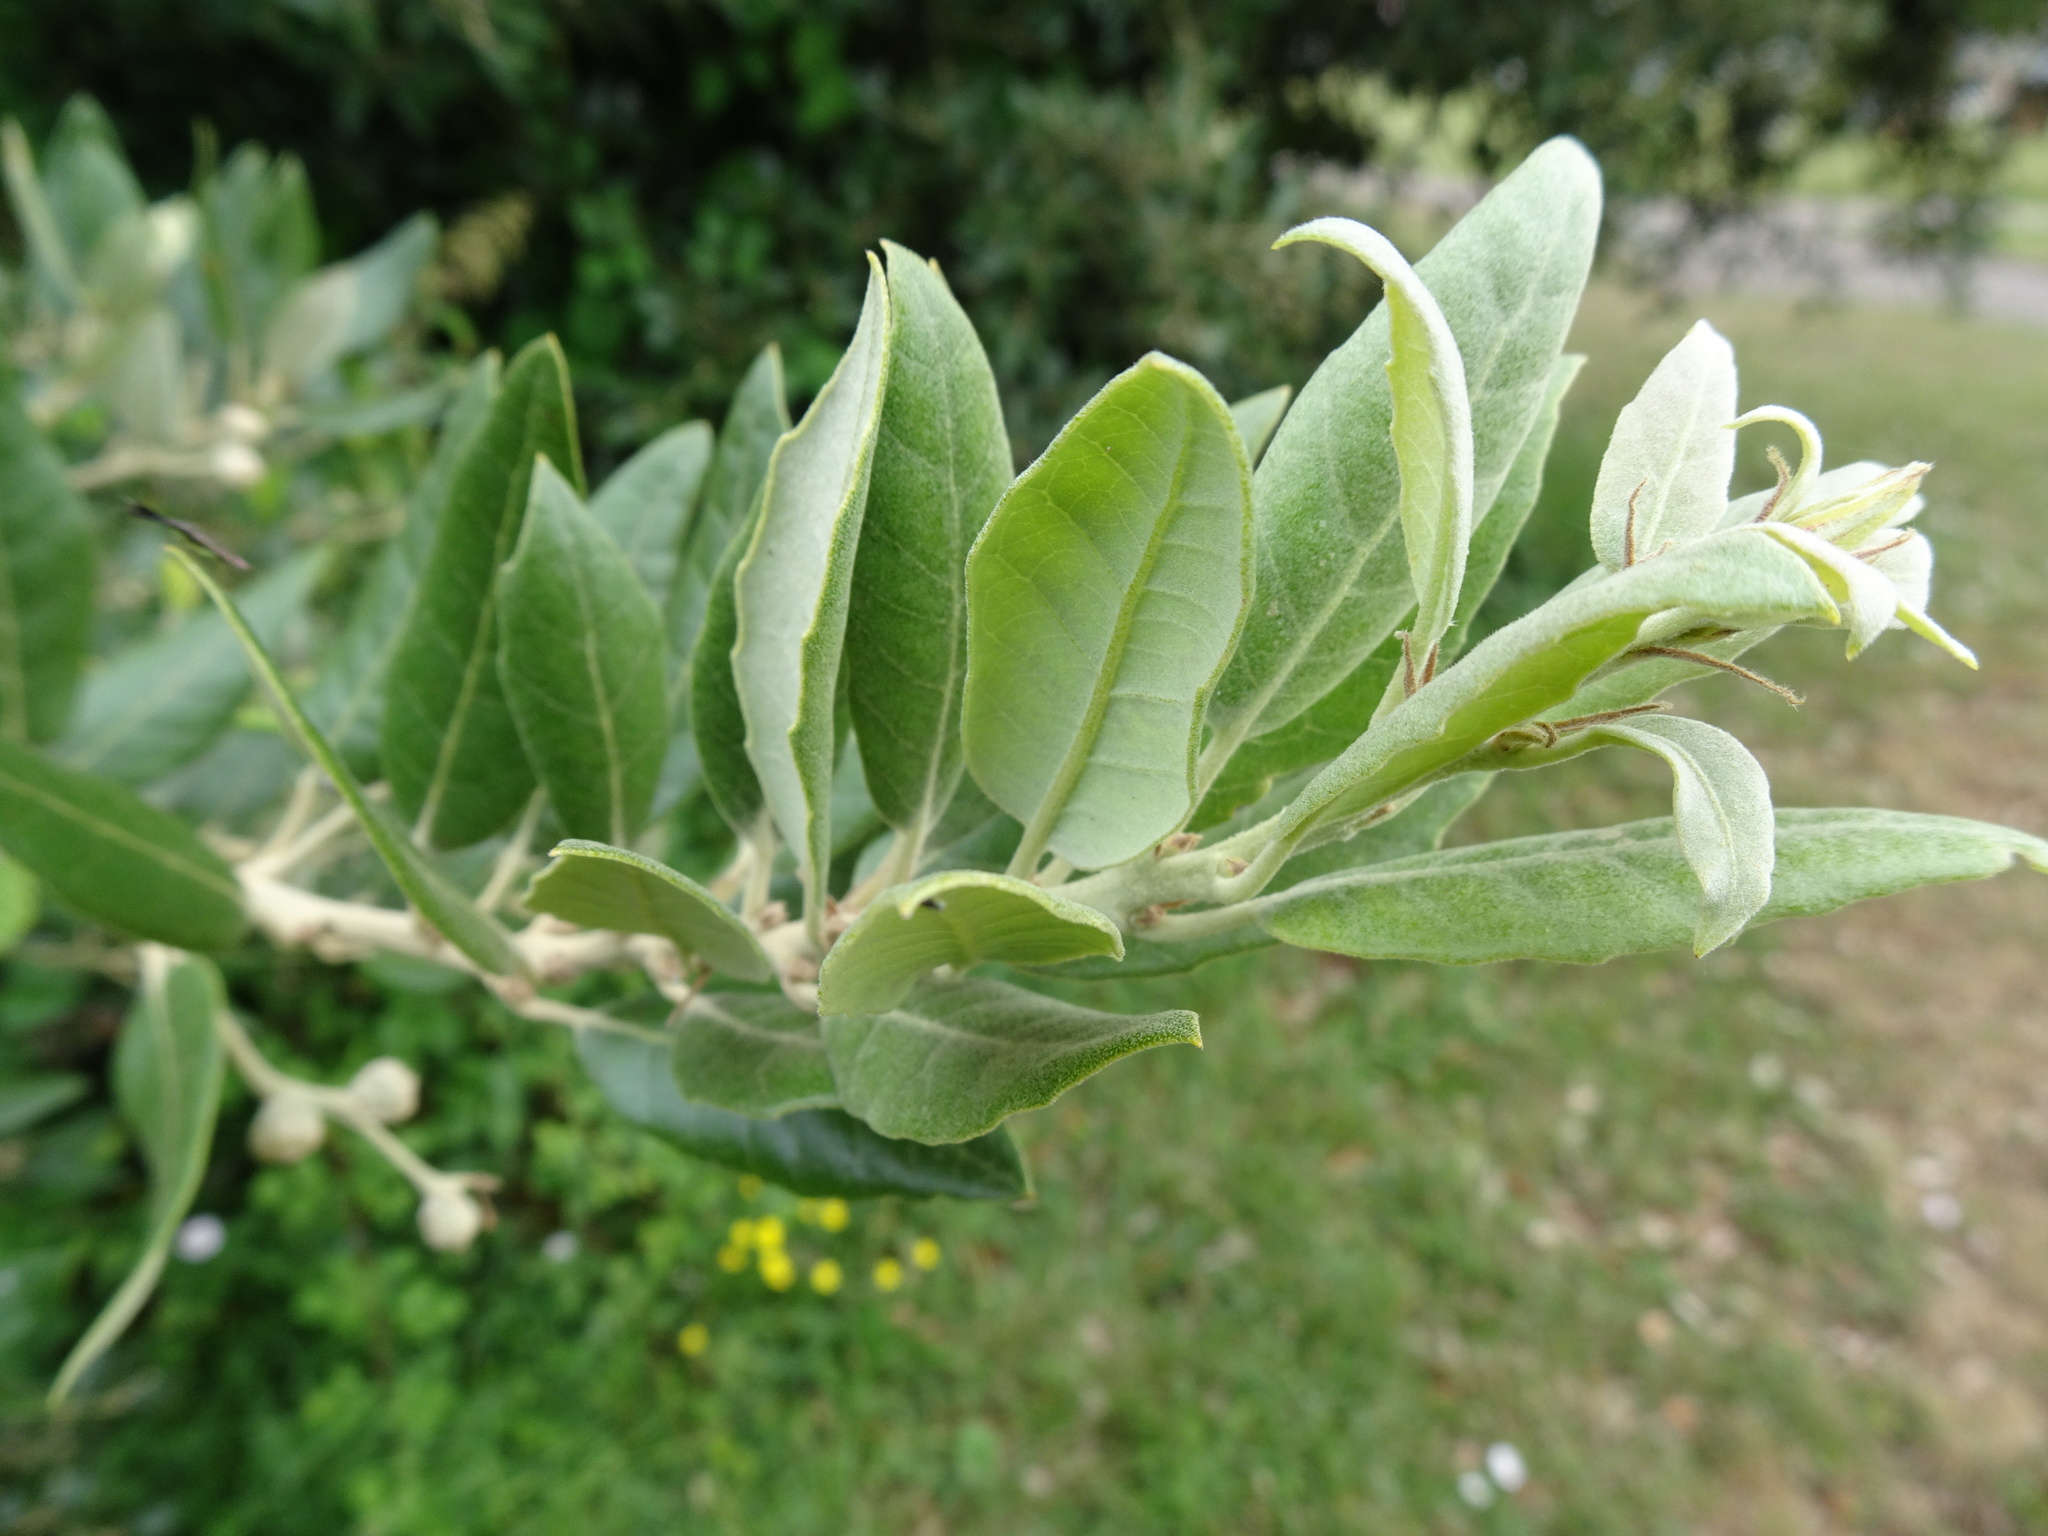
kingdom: Plantae
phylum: Tracheophyta
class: Magnoliopsida
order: Fagales
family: Fagaceae
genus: Quercus
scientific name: Quercus ilex
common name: Evergreen oak
